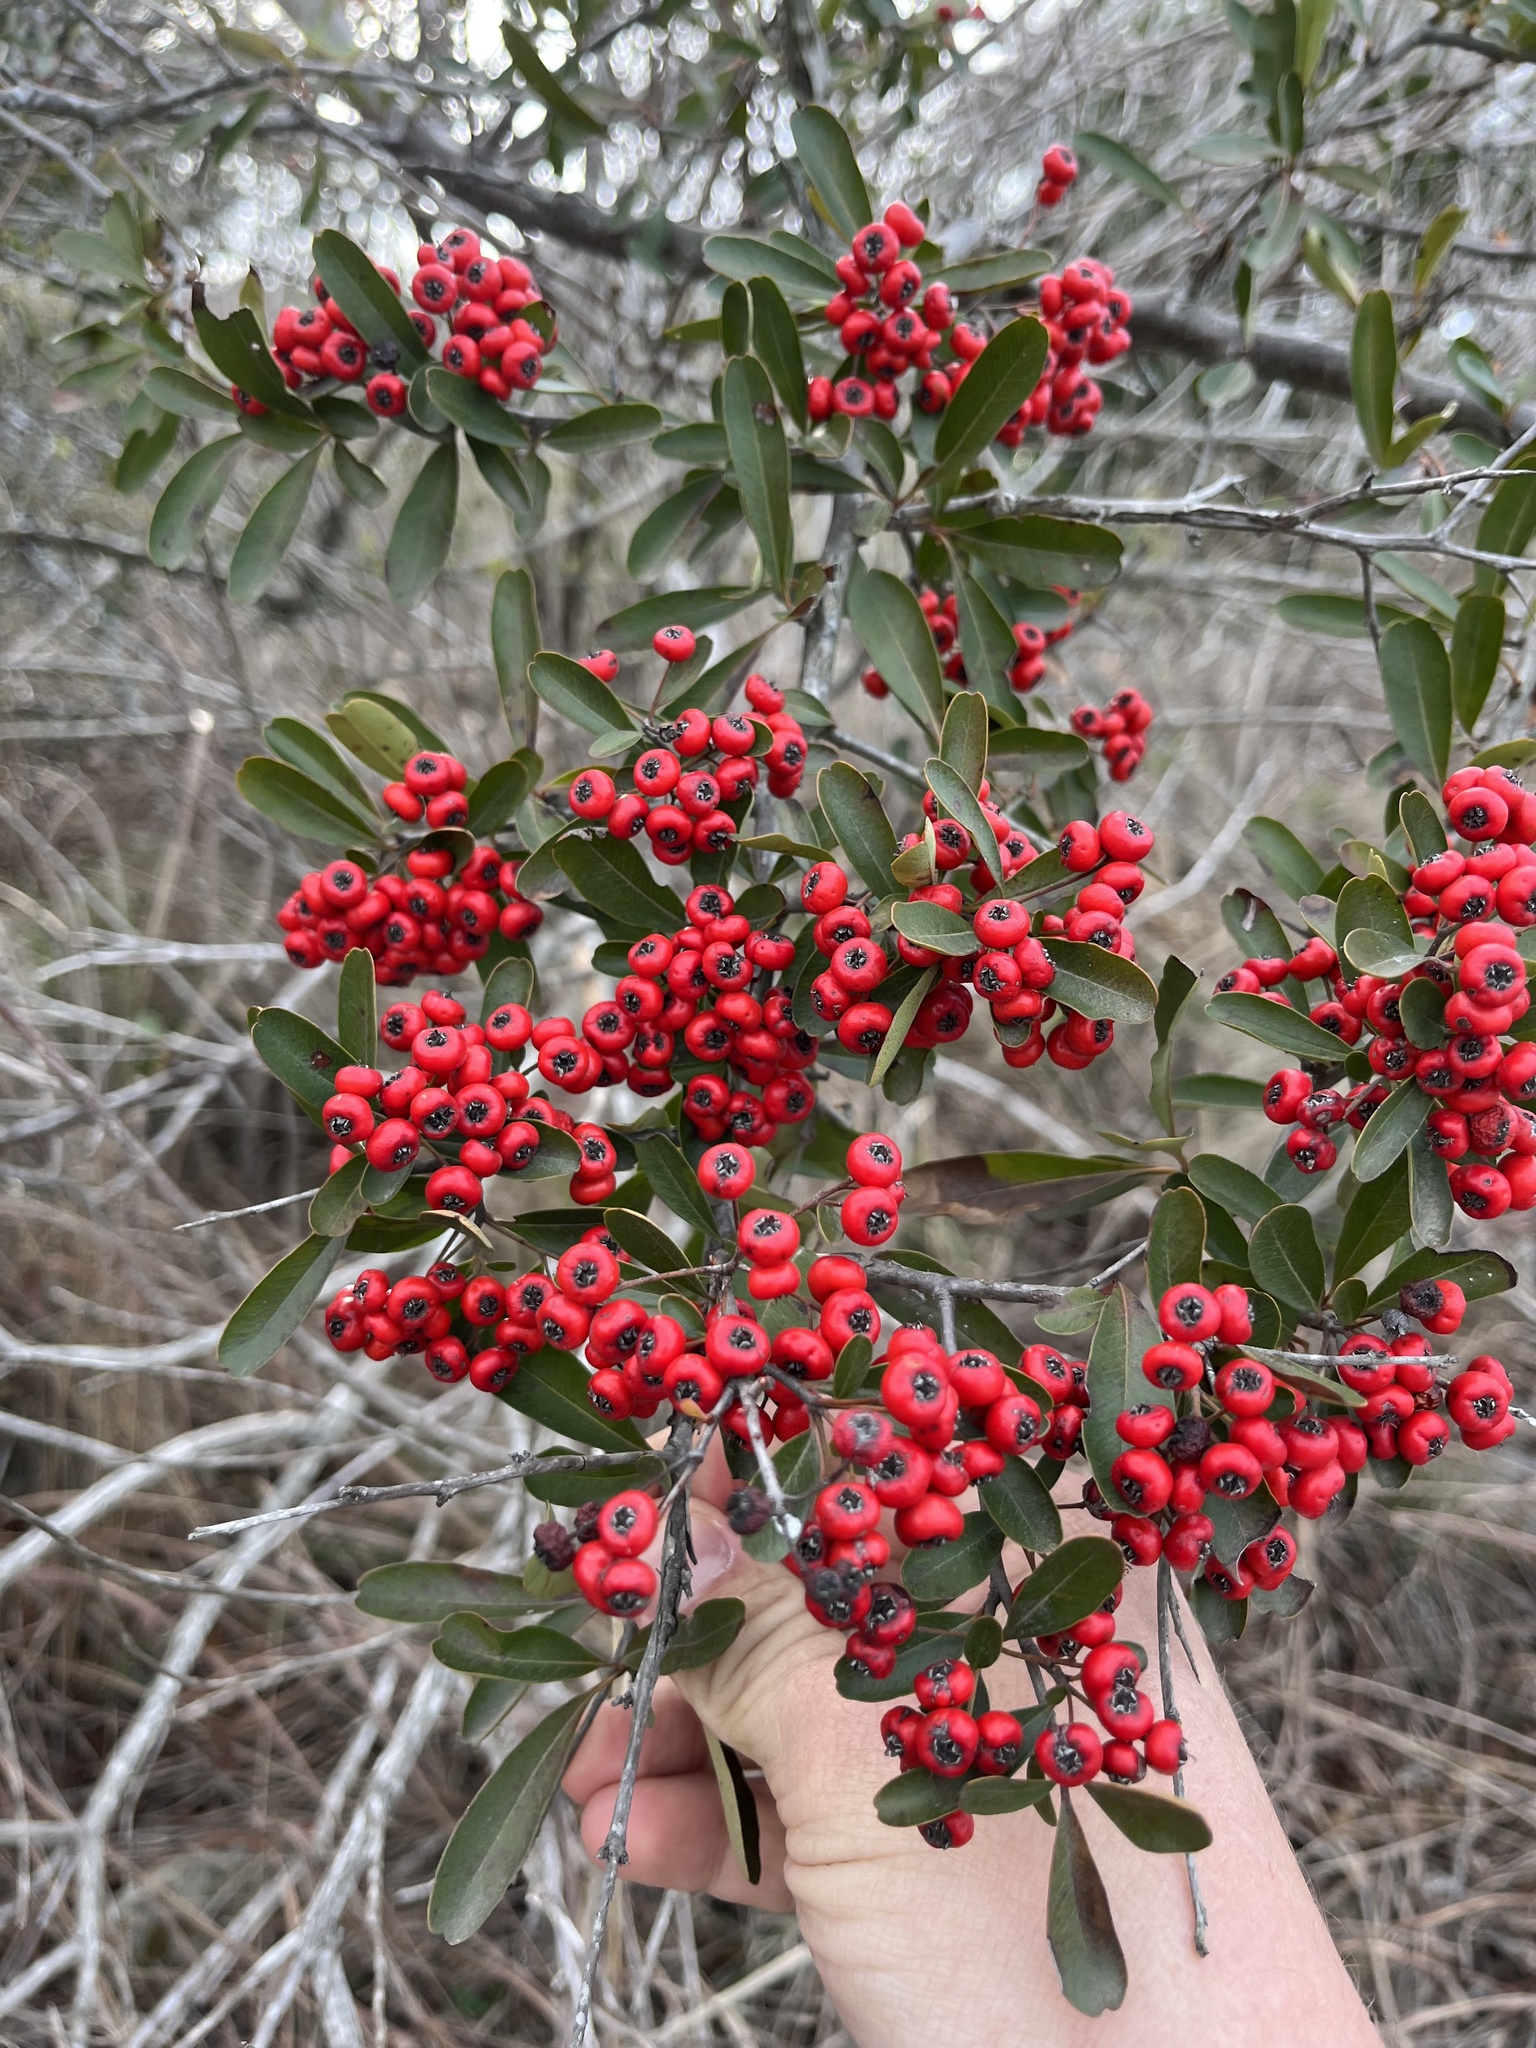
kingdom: Plantae
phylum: Tracheophyta
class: Magnoliopsida
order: Rosales
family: Rosaceae
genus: Pyracantha
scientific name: Pyracantha coccinea
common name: Firethorn
